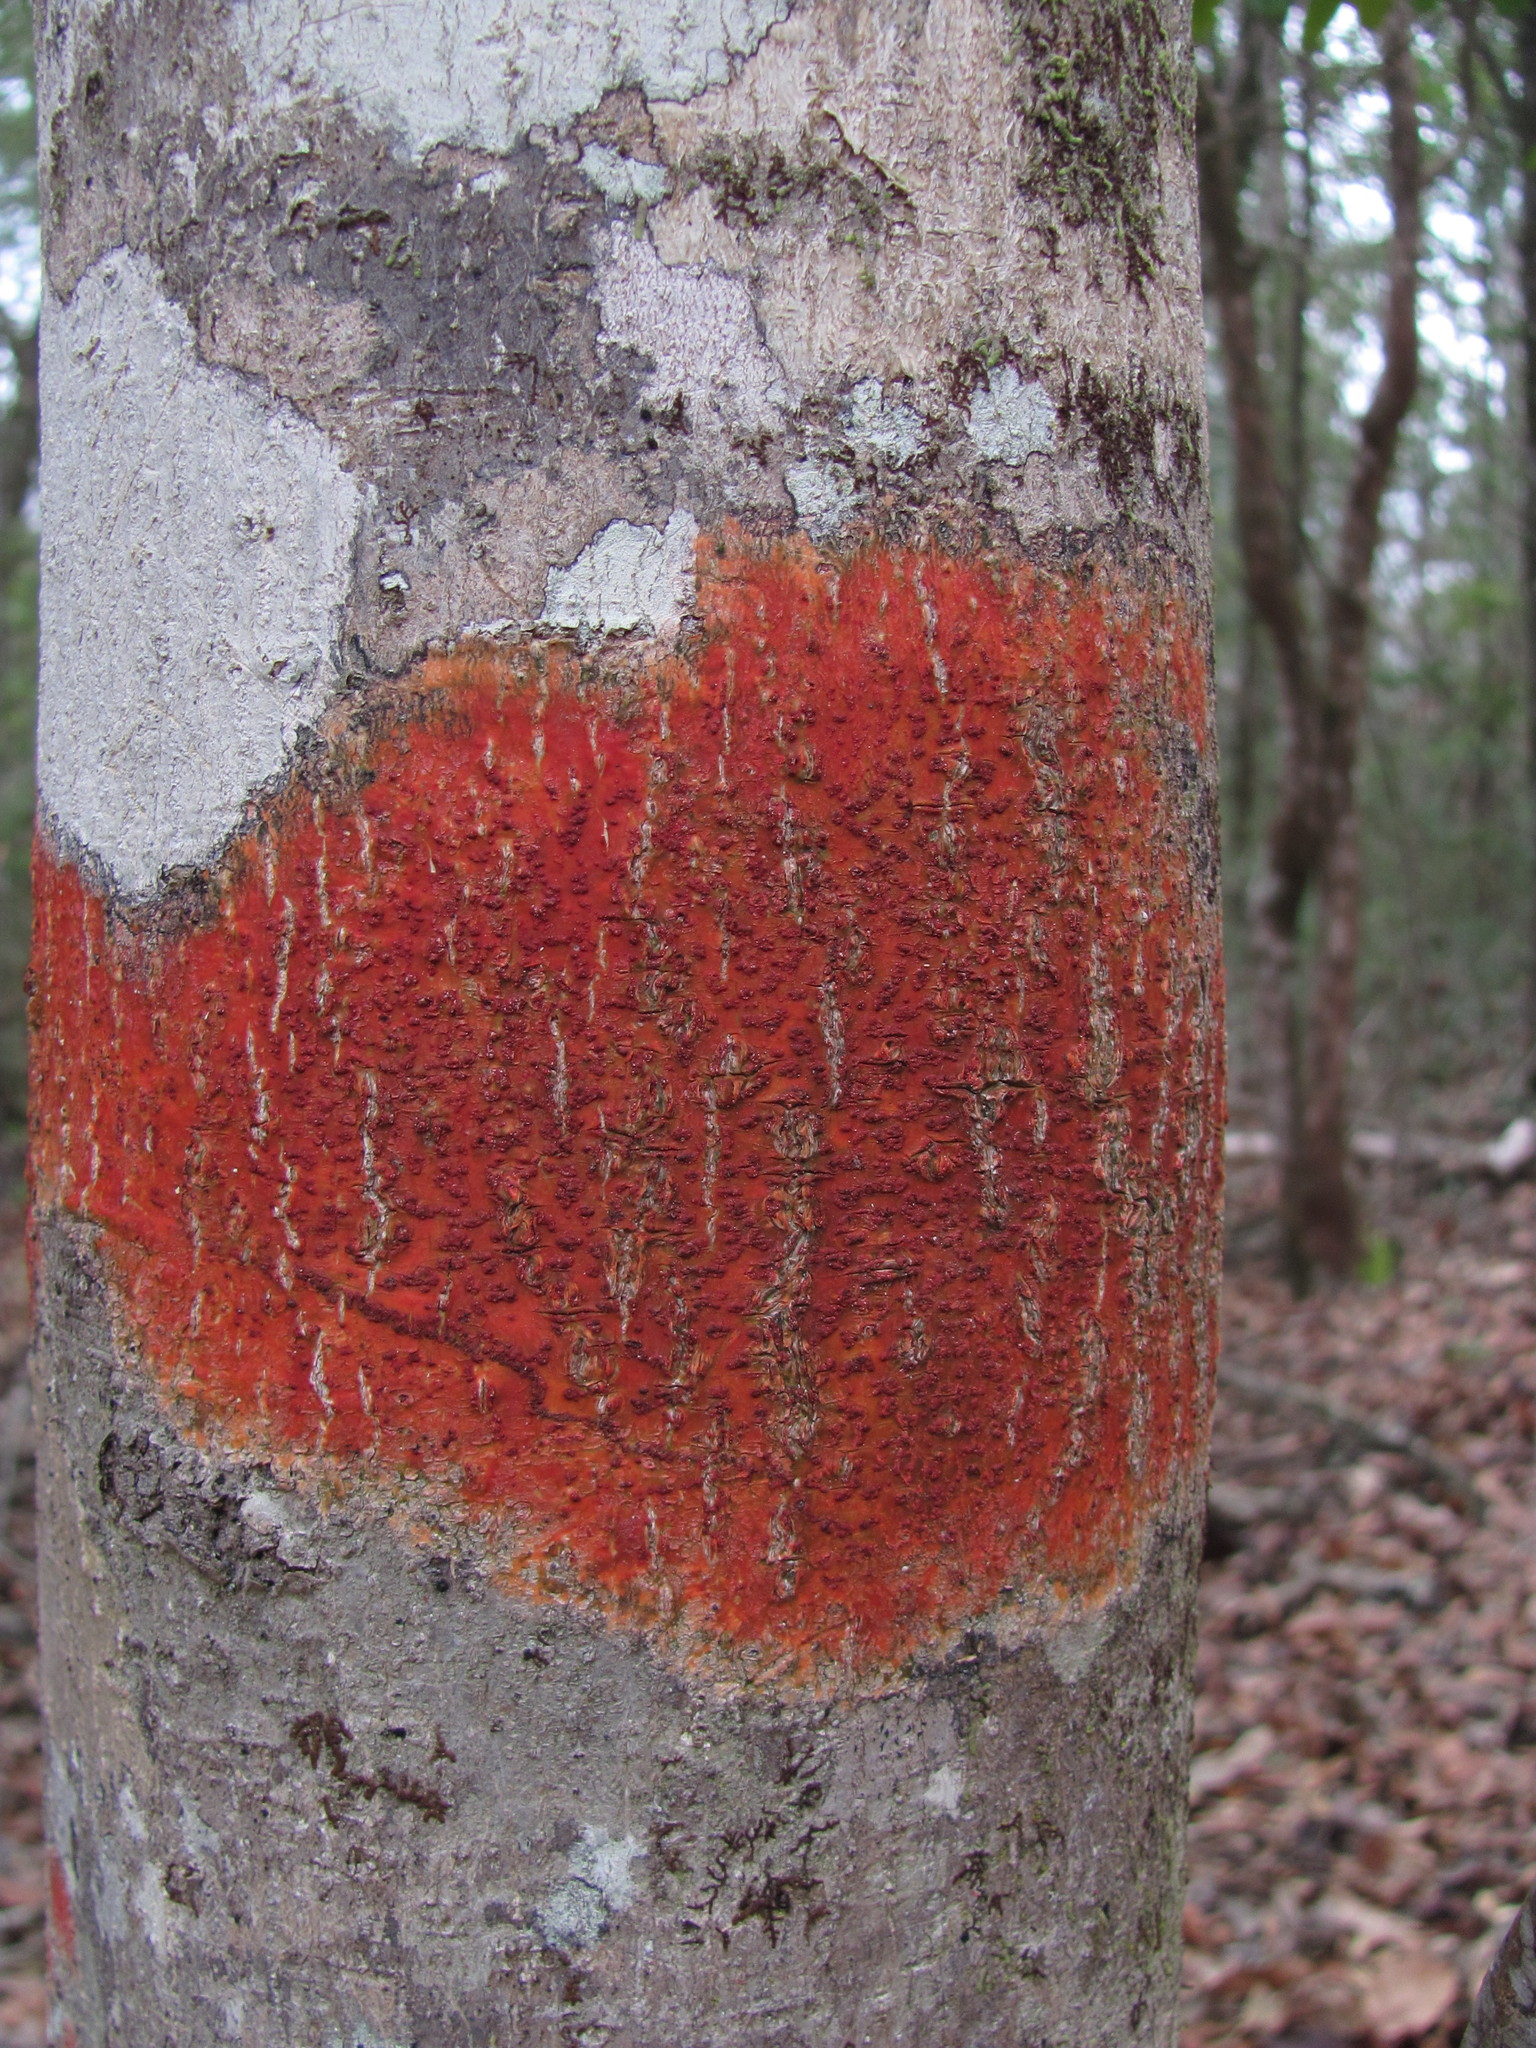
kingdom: Fungi
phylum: Ascomycota
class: Eurotiomycetes
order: Pyrenulales
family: Pyrenulaceae
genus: Pyrenula
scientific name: Pyrenula cruenta
